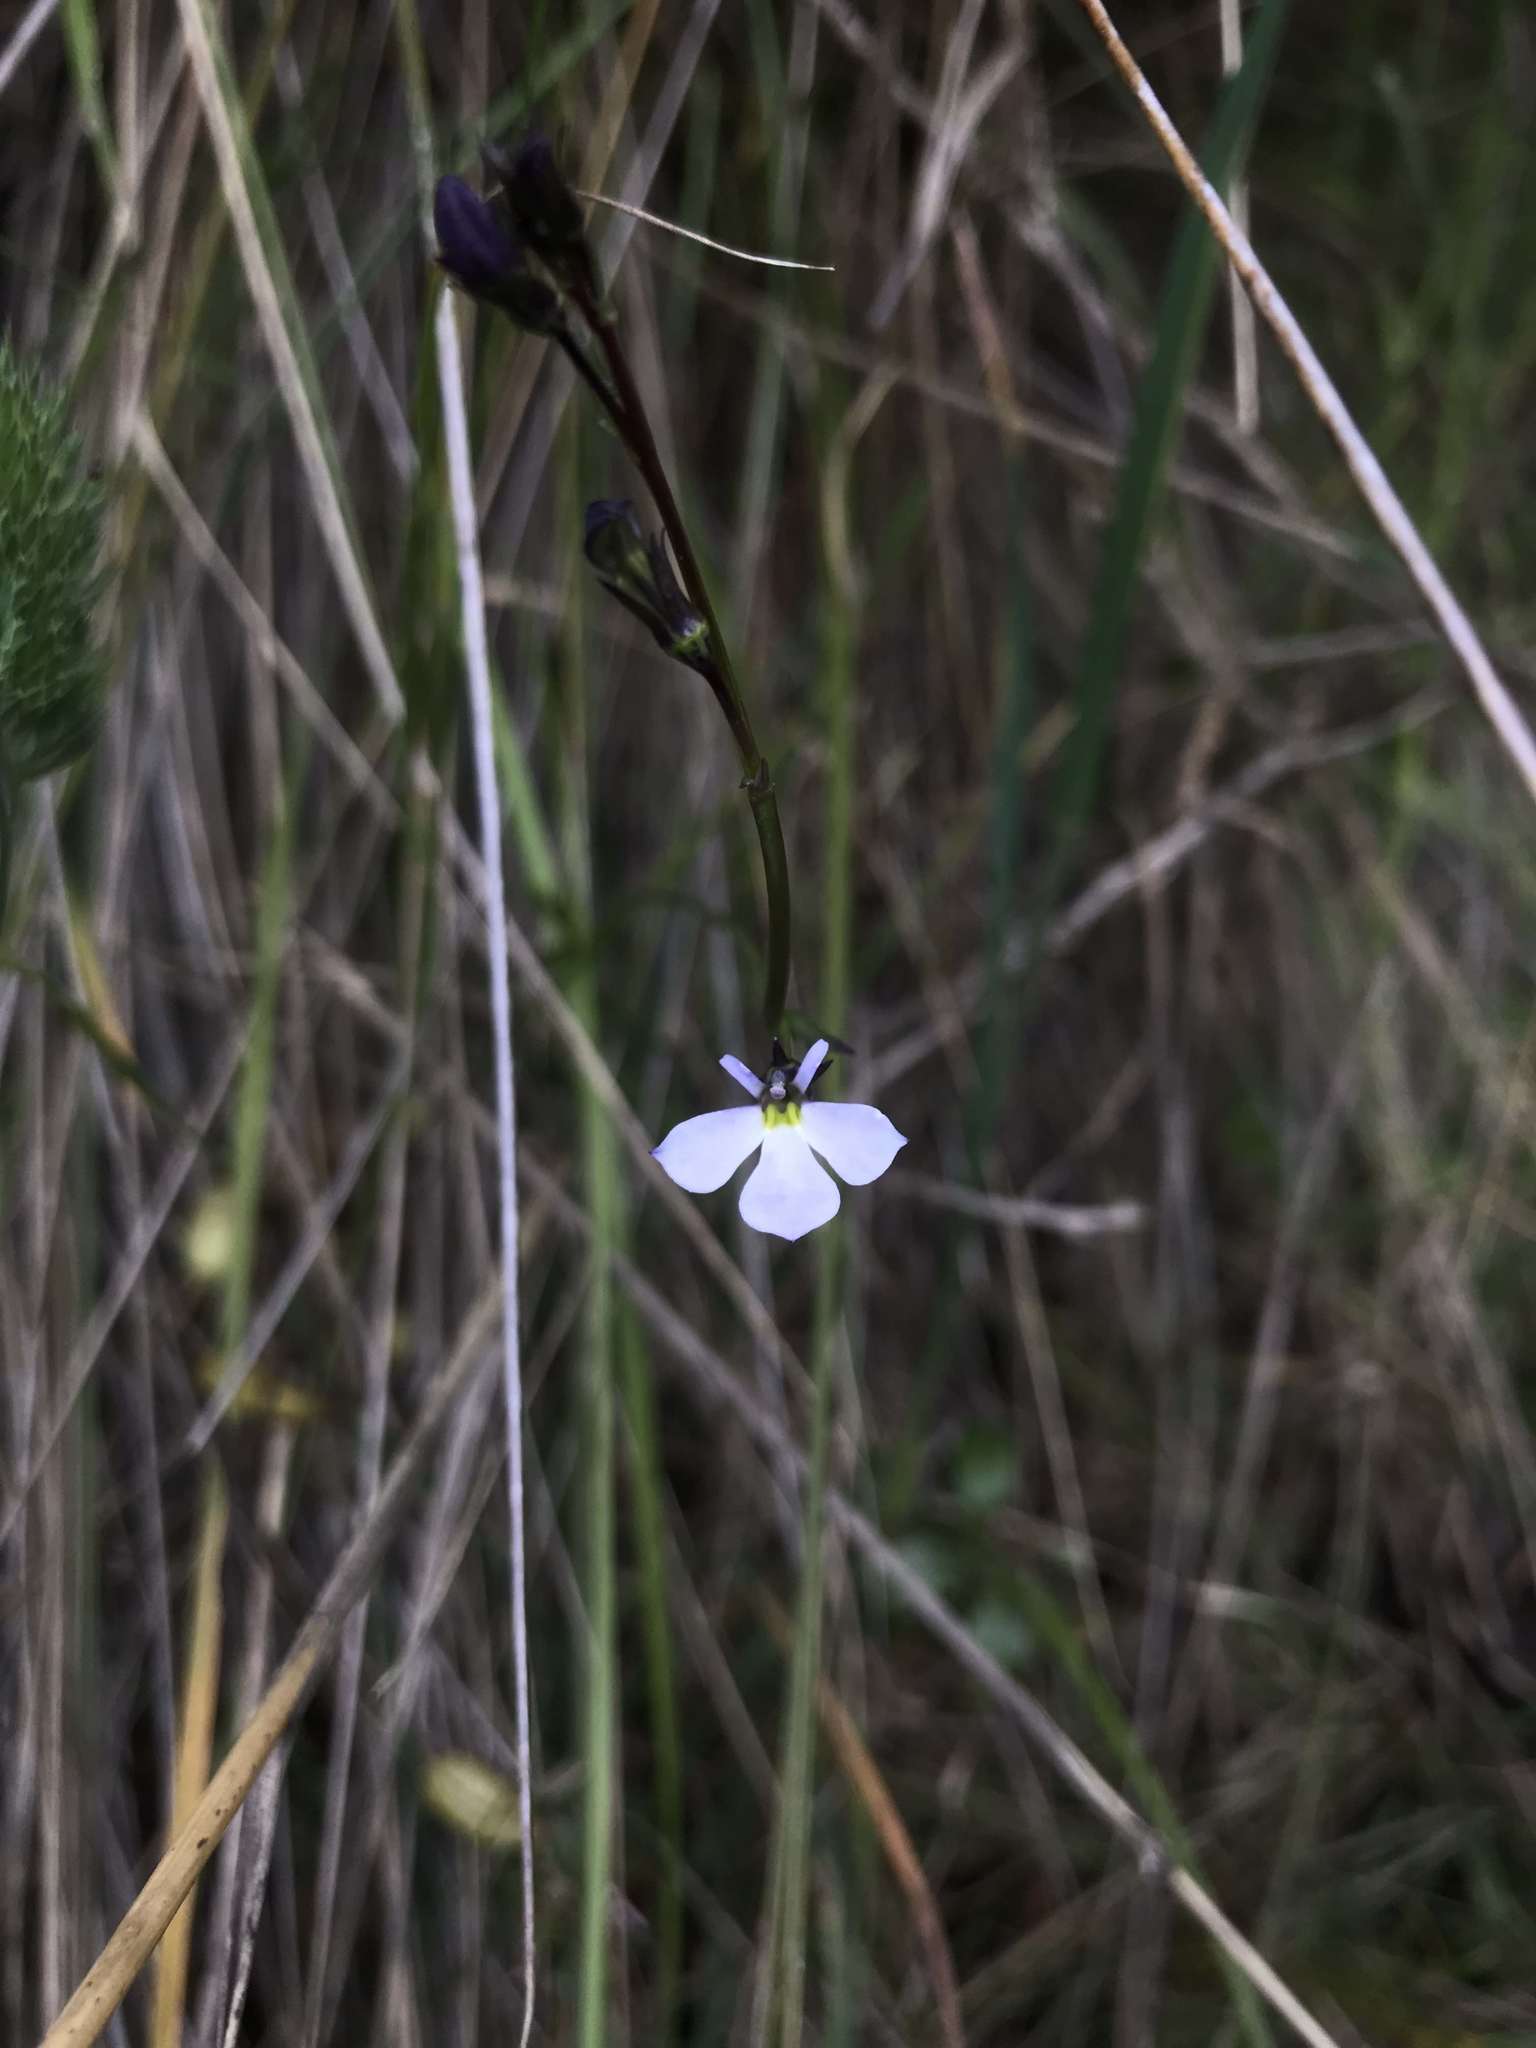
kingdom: Plantae
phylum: Tracheophyta
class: Magnoliopsida
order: Asterales
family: Campanulaceae
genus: Lobelia
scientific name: Lobelia tenera
